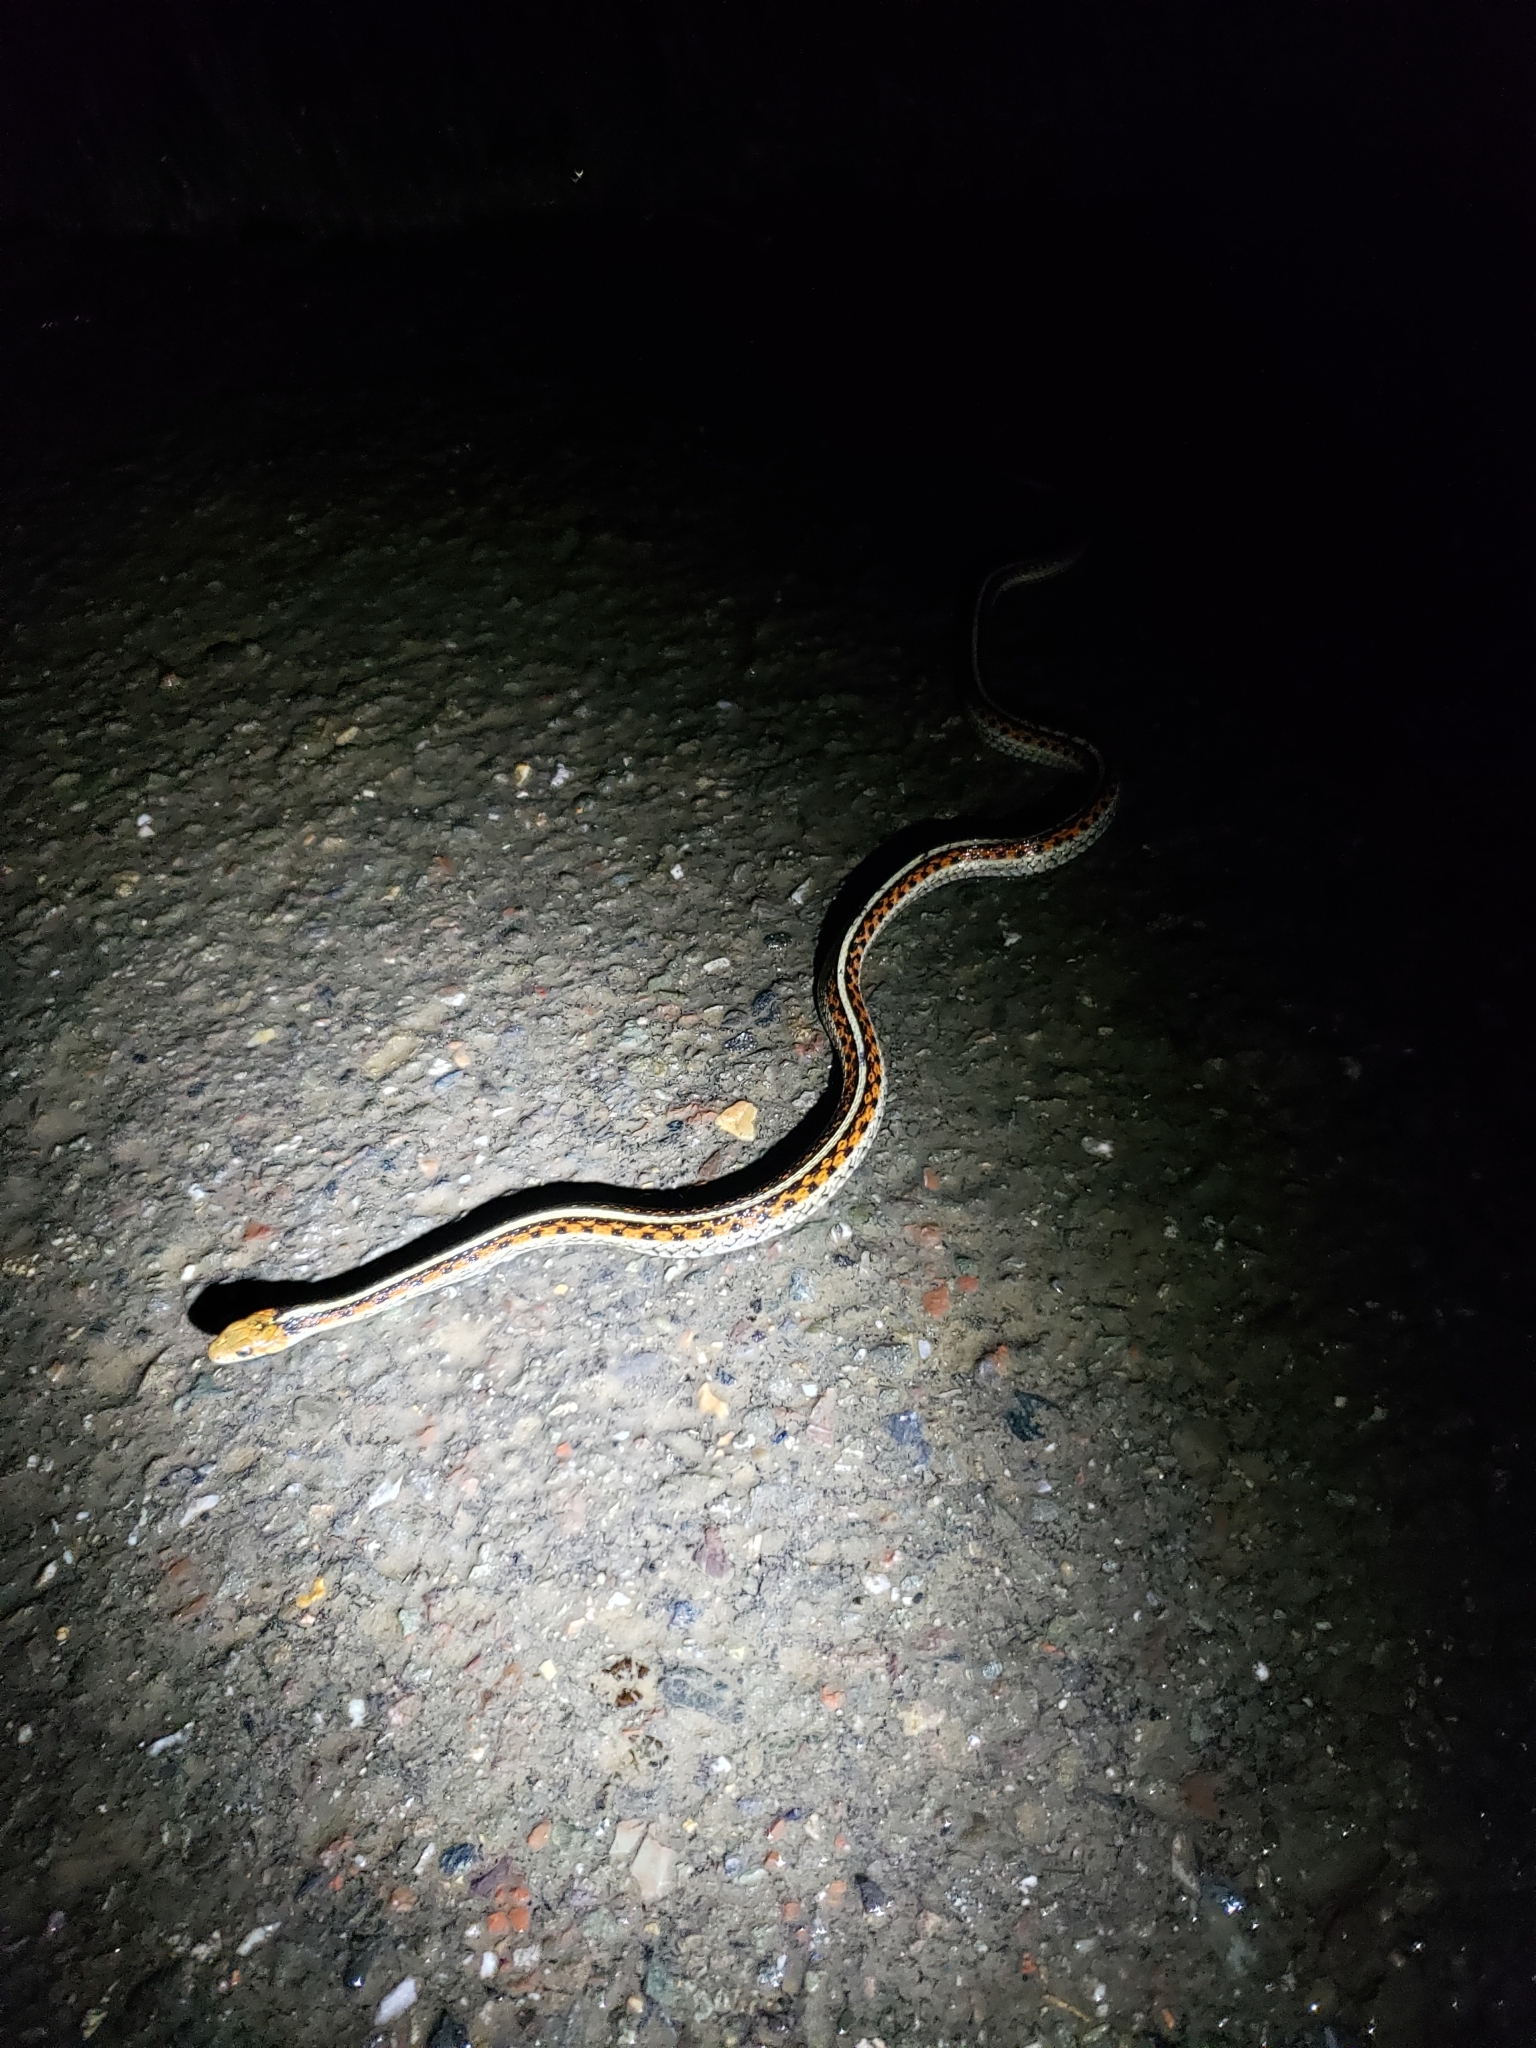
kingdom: Animalia
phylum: Chordata
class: Squamata
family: Colubridae
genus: Thamnophis
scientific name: Thamnophis sirtalis
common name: Common garter snake
